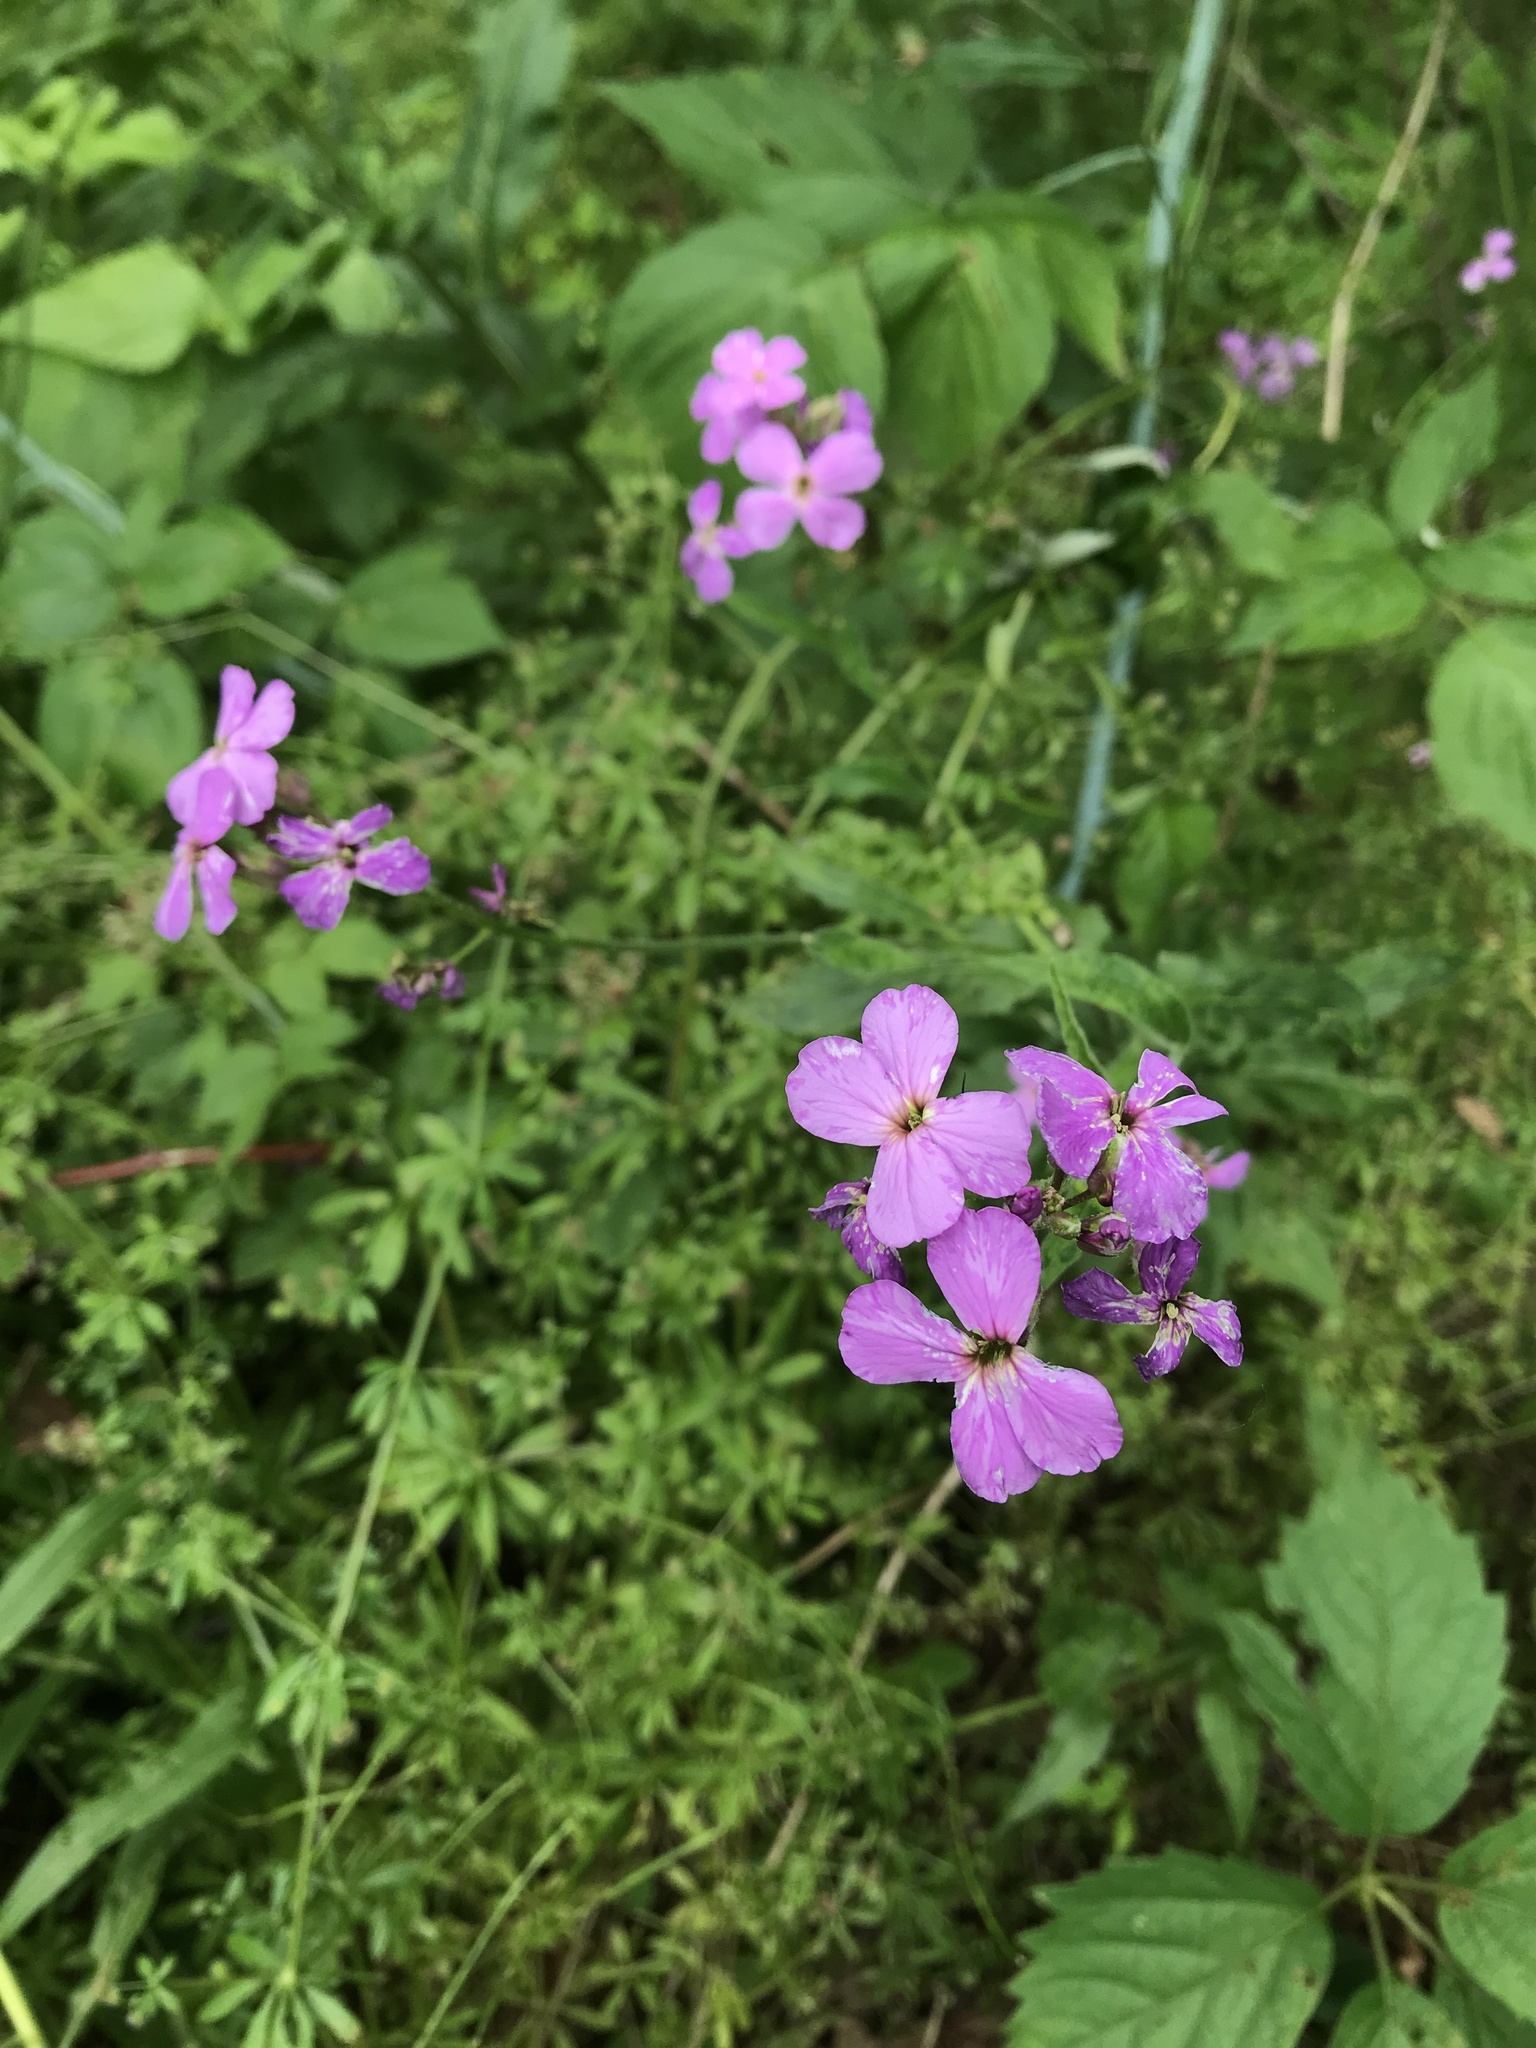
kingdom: Plantae
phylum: Tracheophyta
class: Magnoliopsida
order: Brassicales
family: Brassicaceae
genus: Hesperis
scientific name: Hesperis matronalis
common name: Dame's-violet
